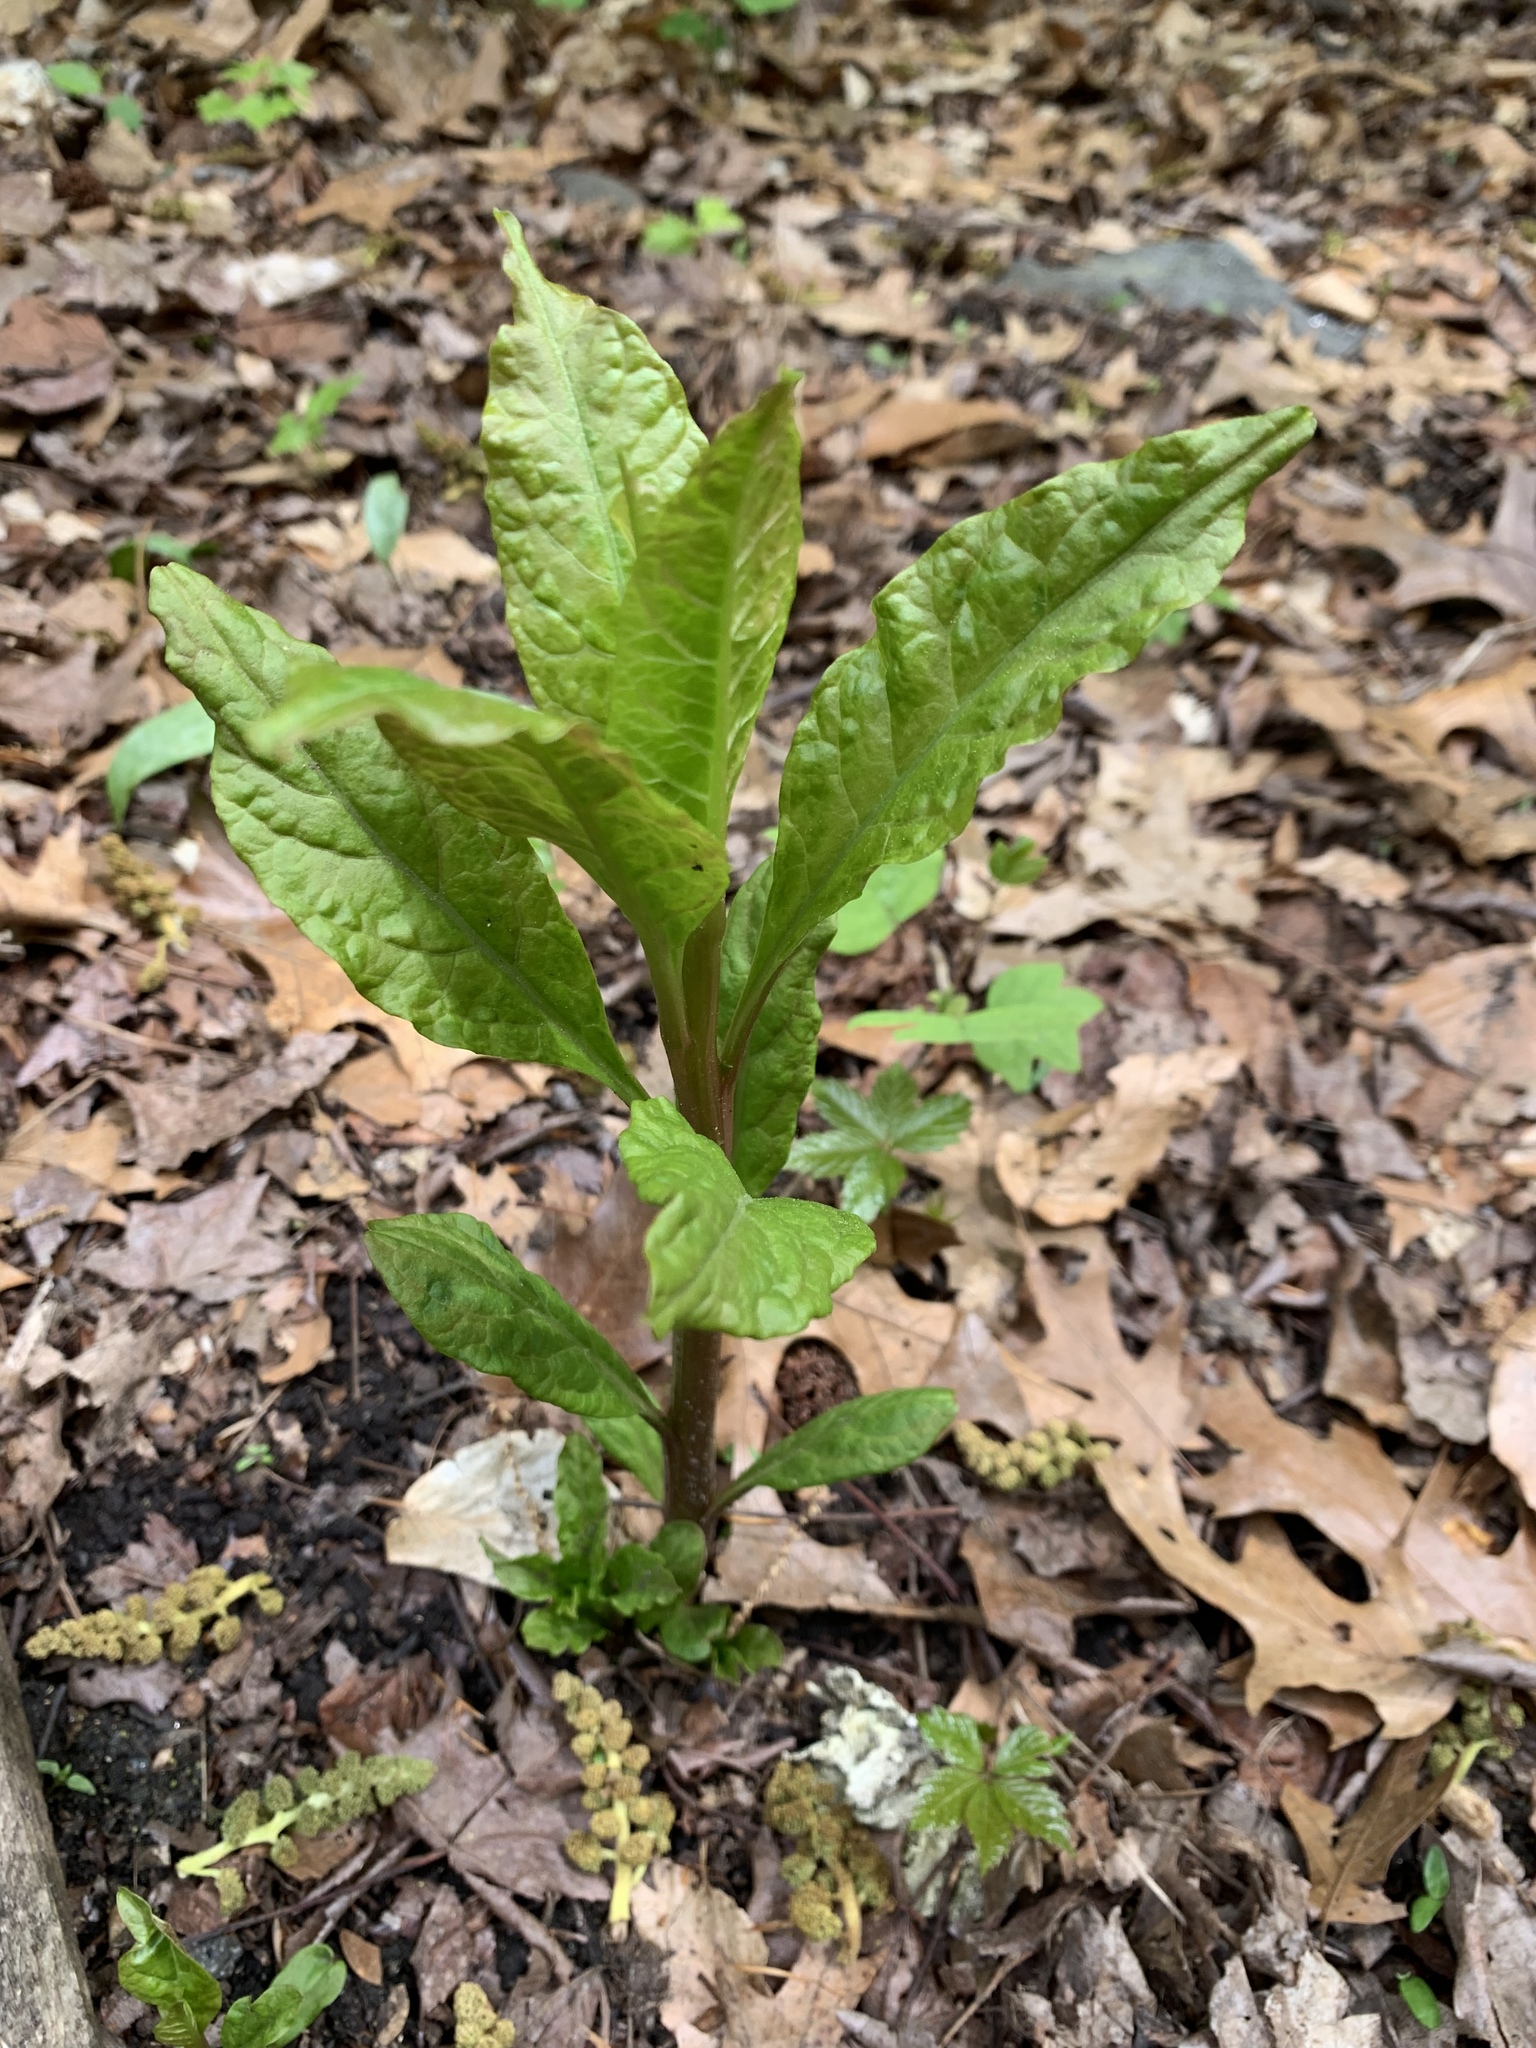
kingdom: Plantae
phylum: Tracheophyta
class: Magnoliopsida
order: Caryophyllales
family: Phytolaccaceae
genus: Phytolacca
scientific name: Phytolacca americana
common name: American pokeweed
